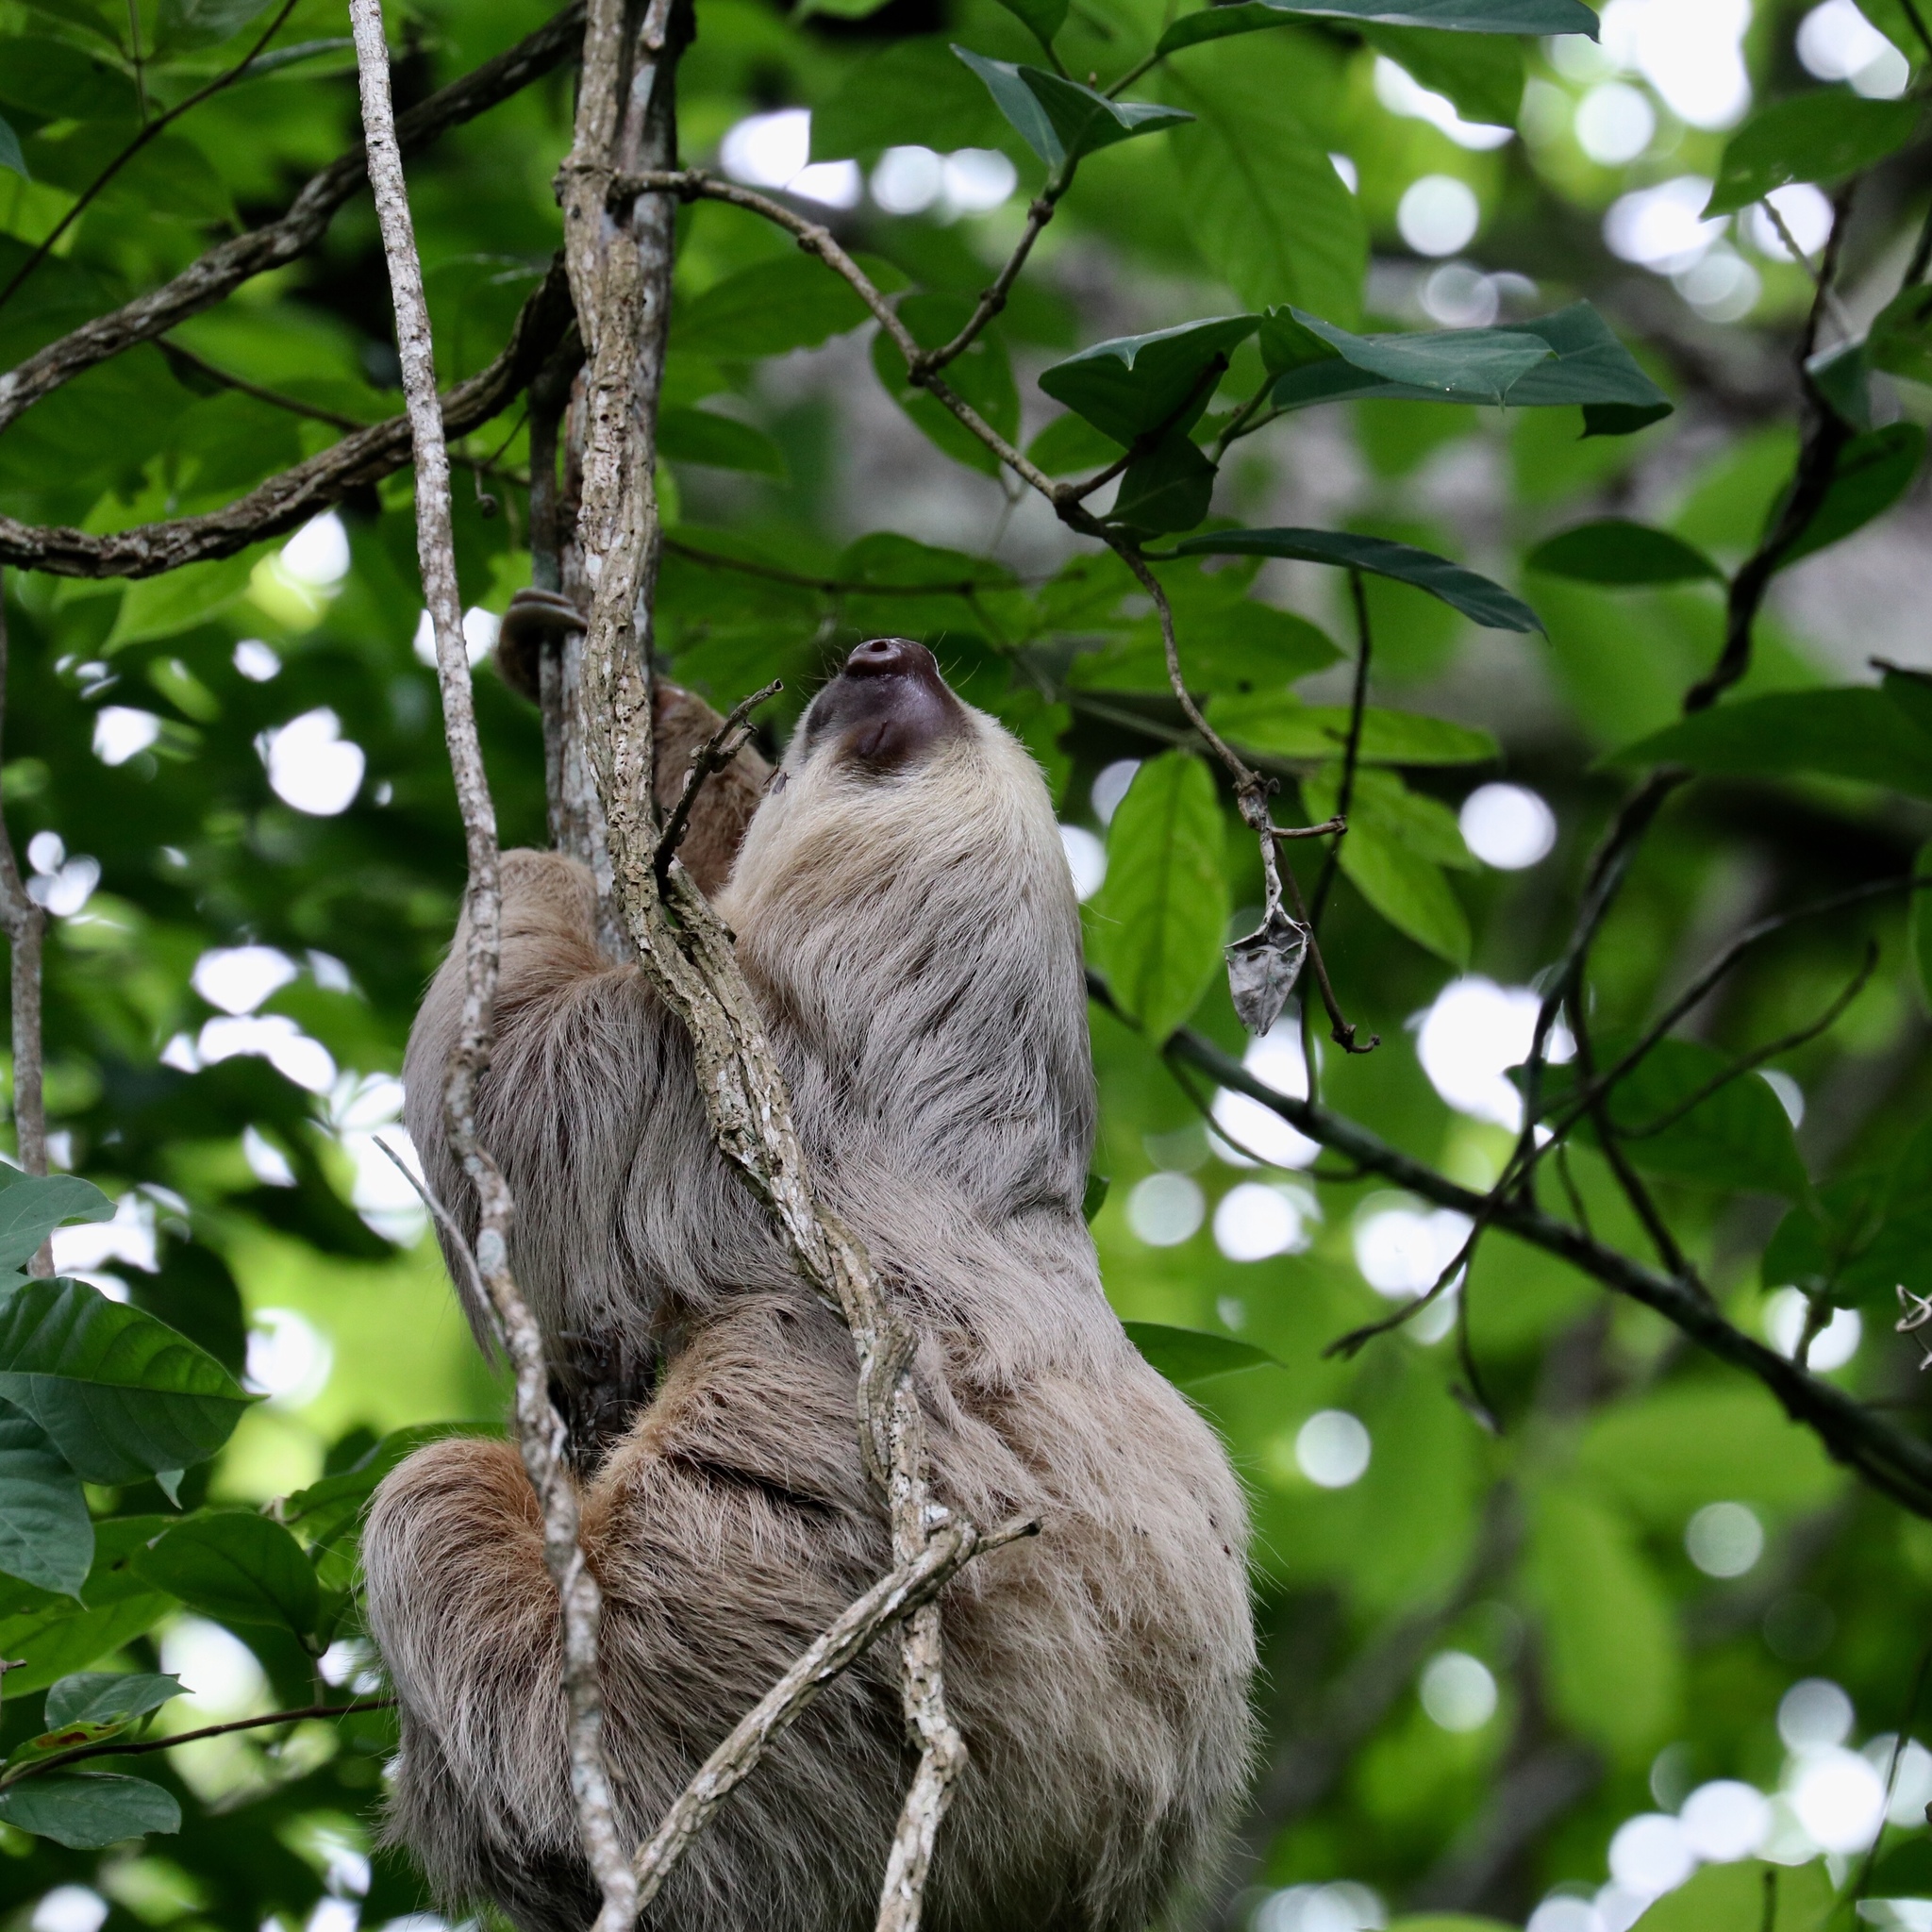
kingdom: Animalia
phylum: Chordata
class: Mammalia
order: Pilosa
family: Megalonychidae
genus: Choloepus
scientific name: Choloepus hoffmanni
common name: Hoffmann's two-toed sloth
